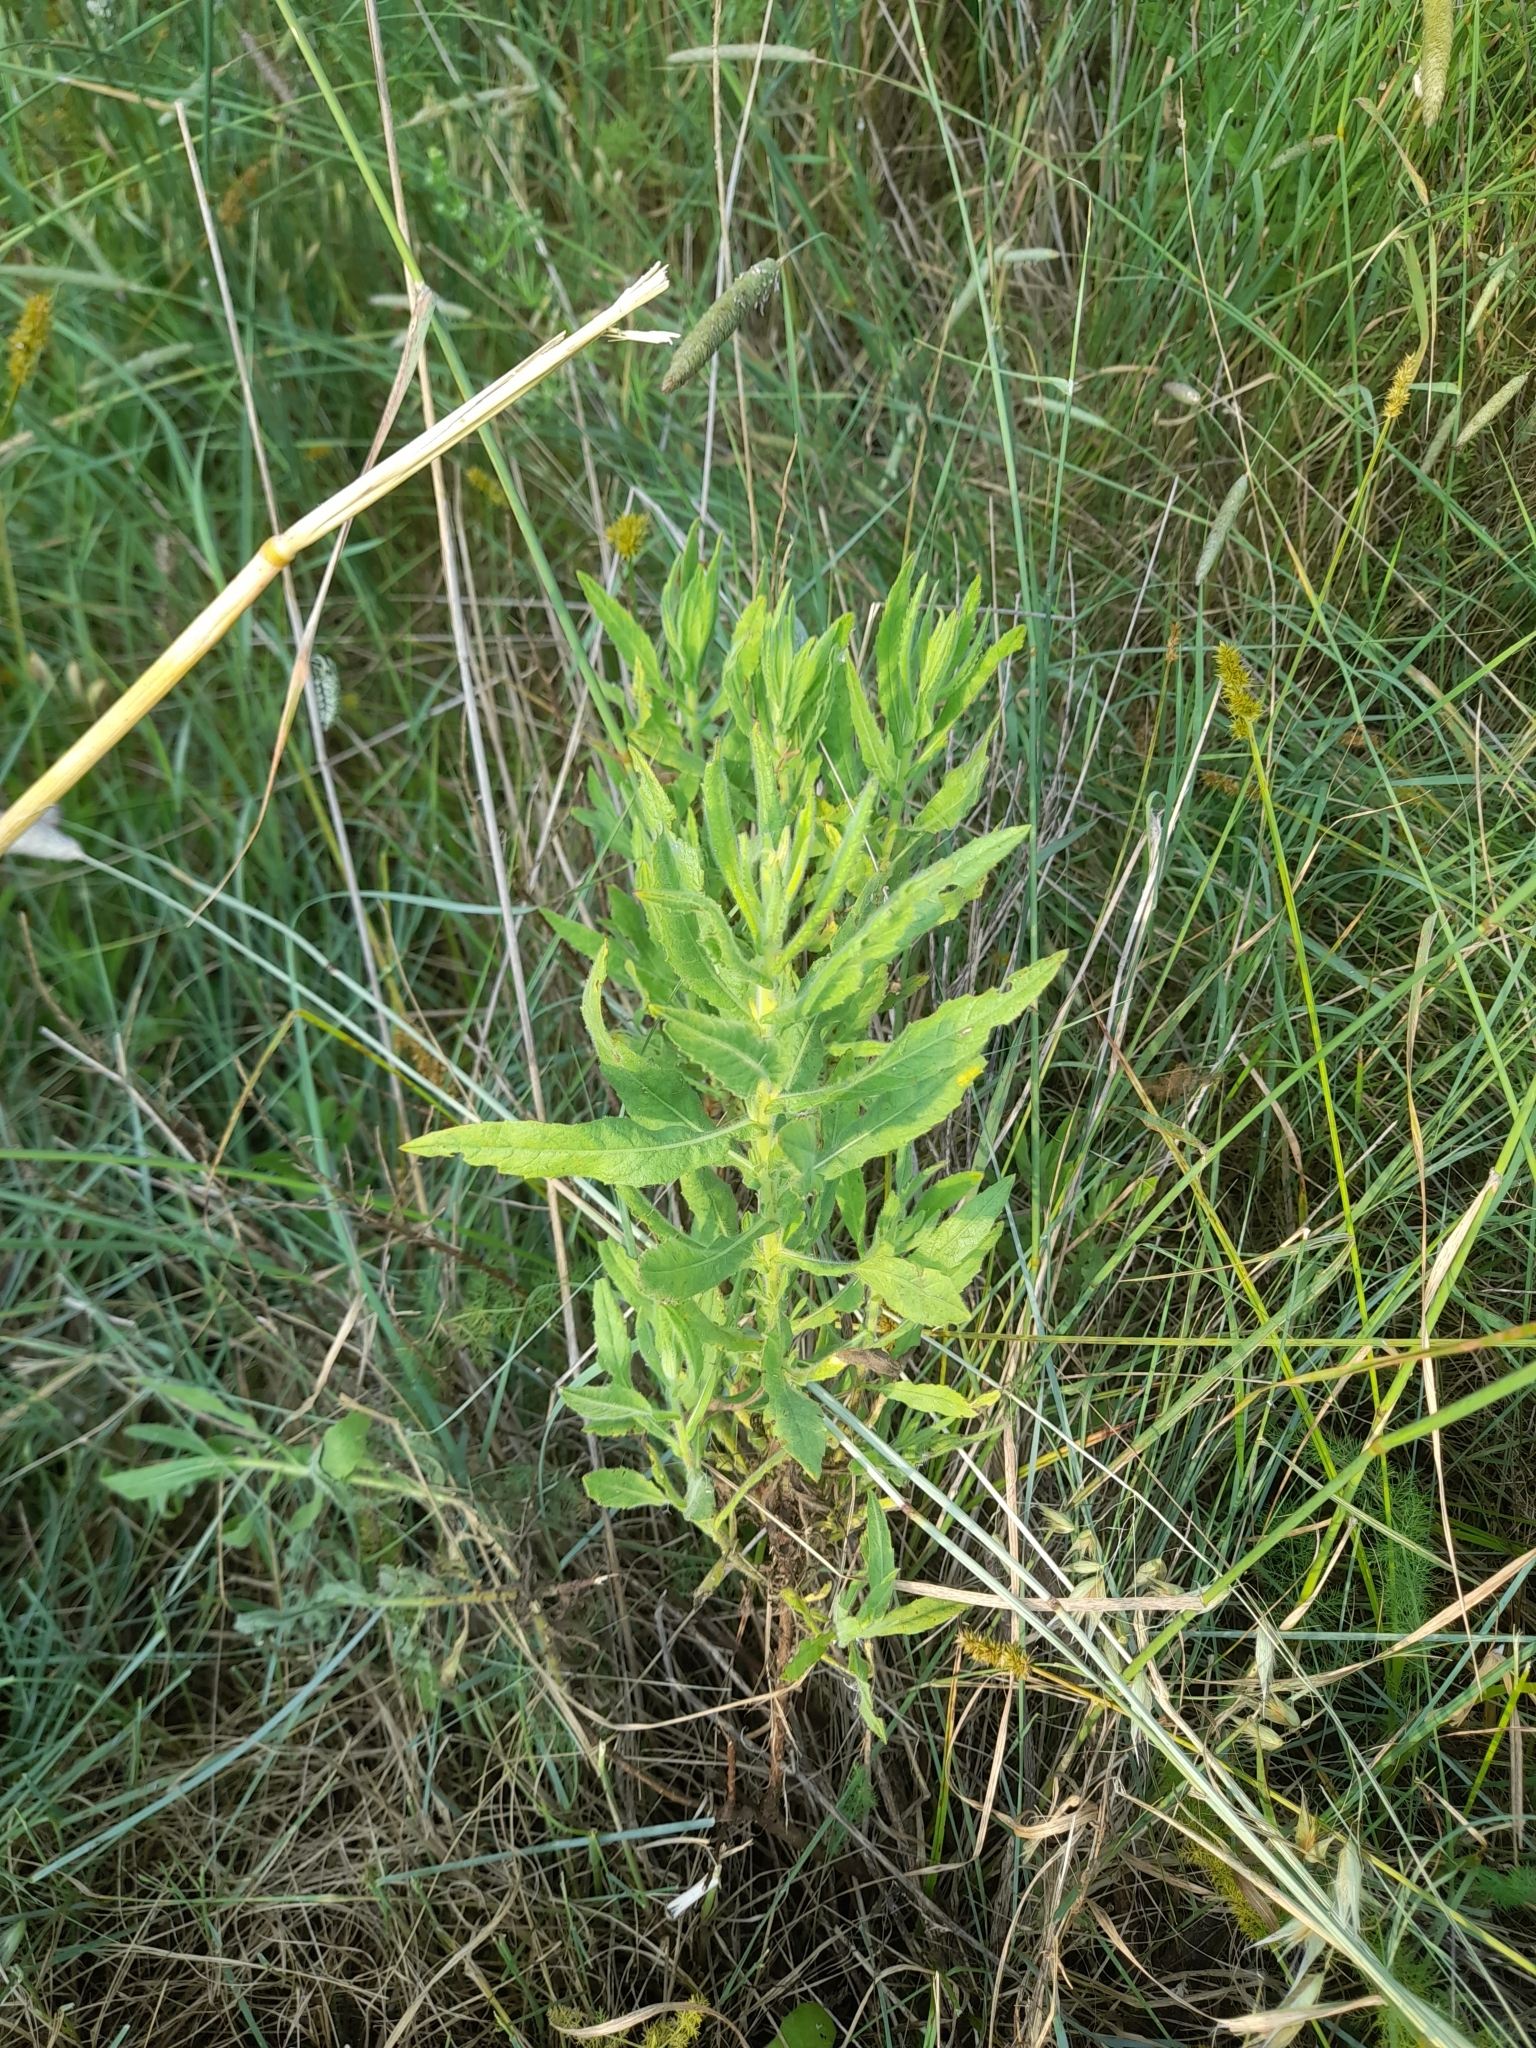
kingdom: Plantae
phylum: Tracheophyta
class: Magnoliopsida
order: Asterales
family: Asteraceae
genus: Dittrichia
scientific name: Dittrichia viscosa
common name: Woody fleabane
